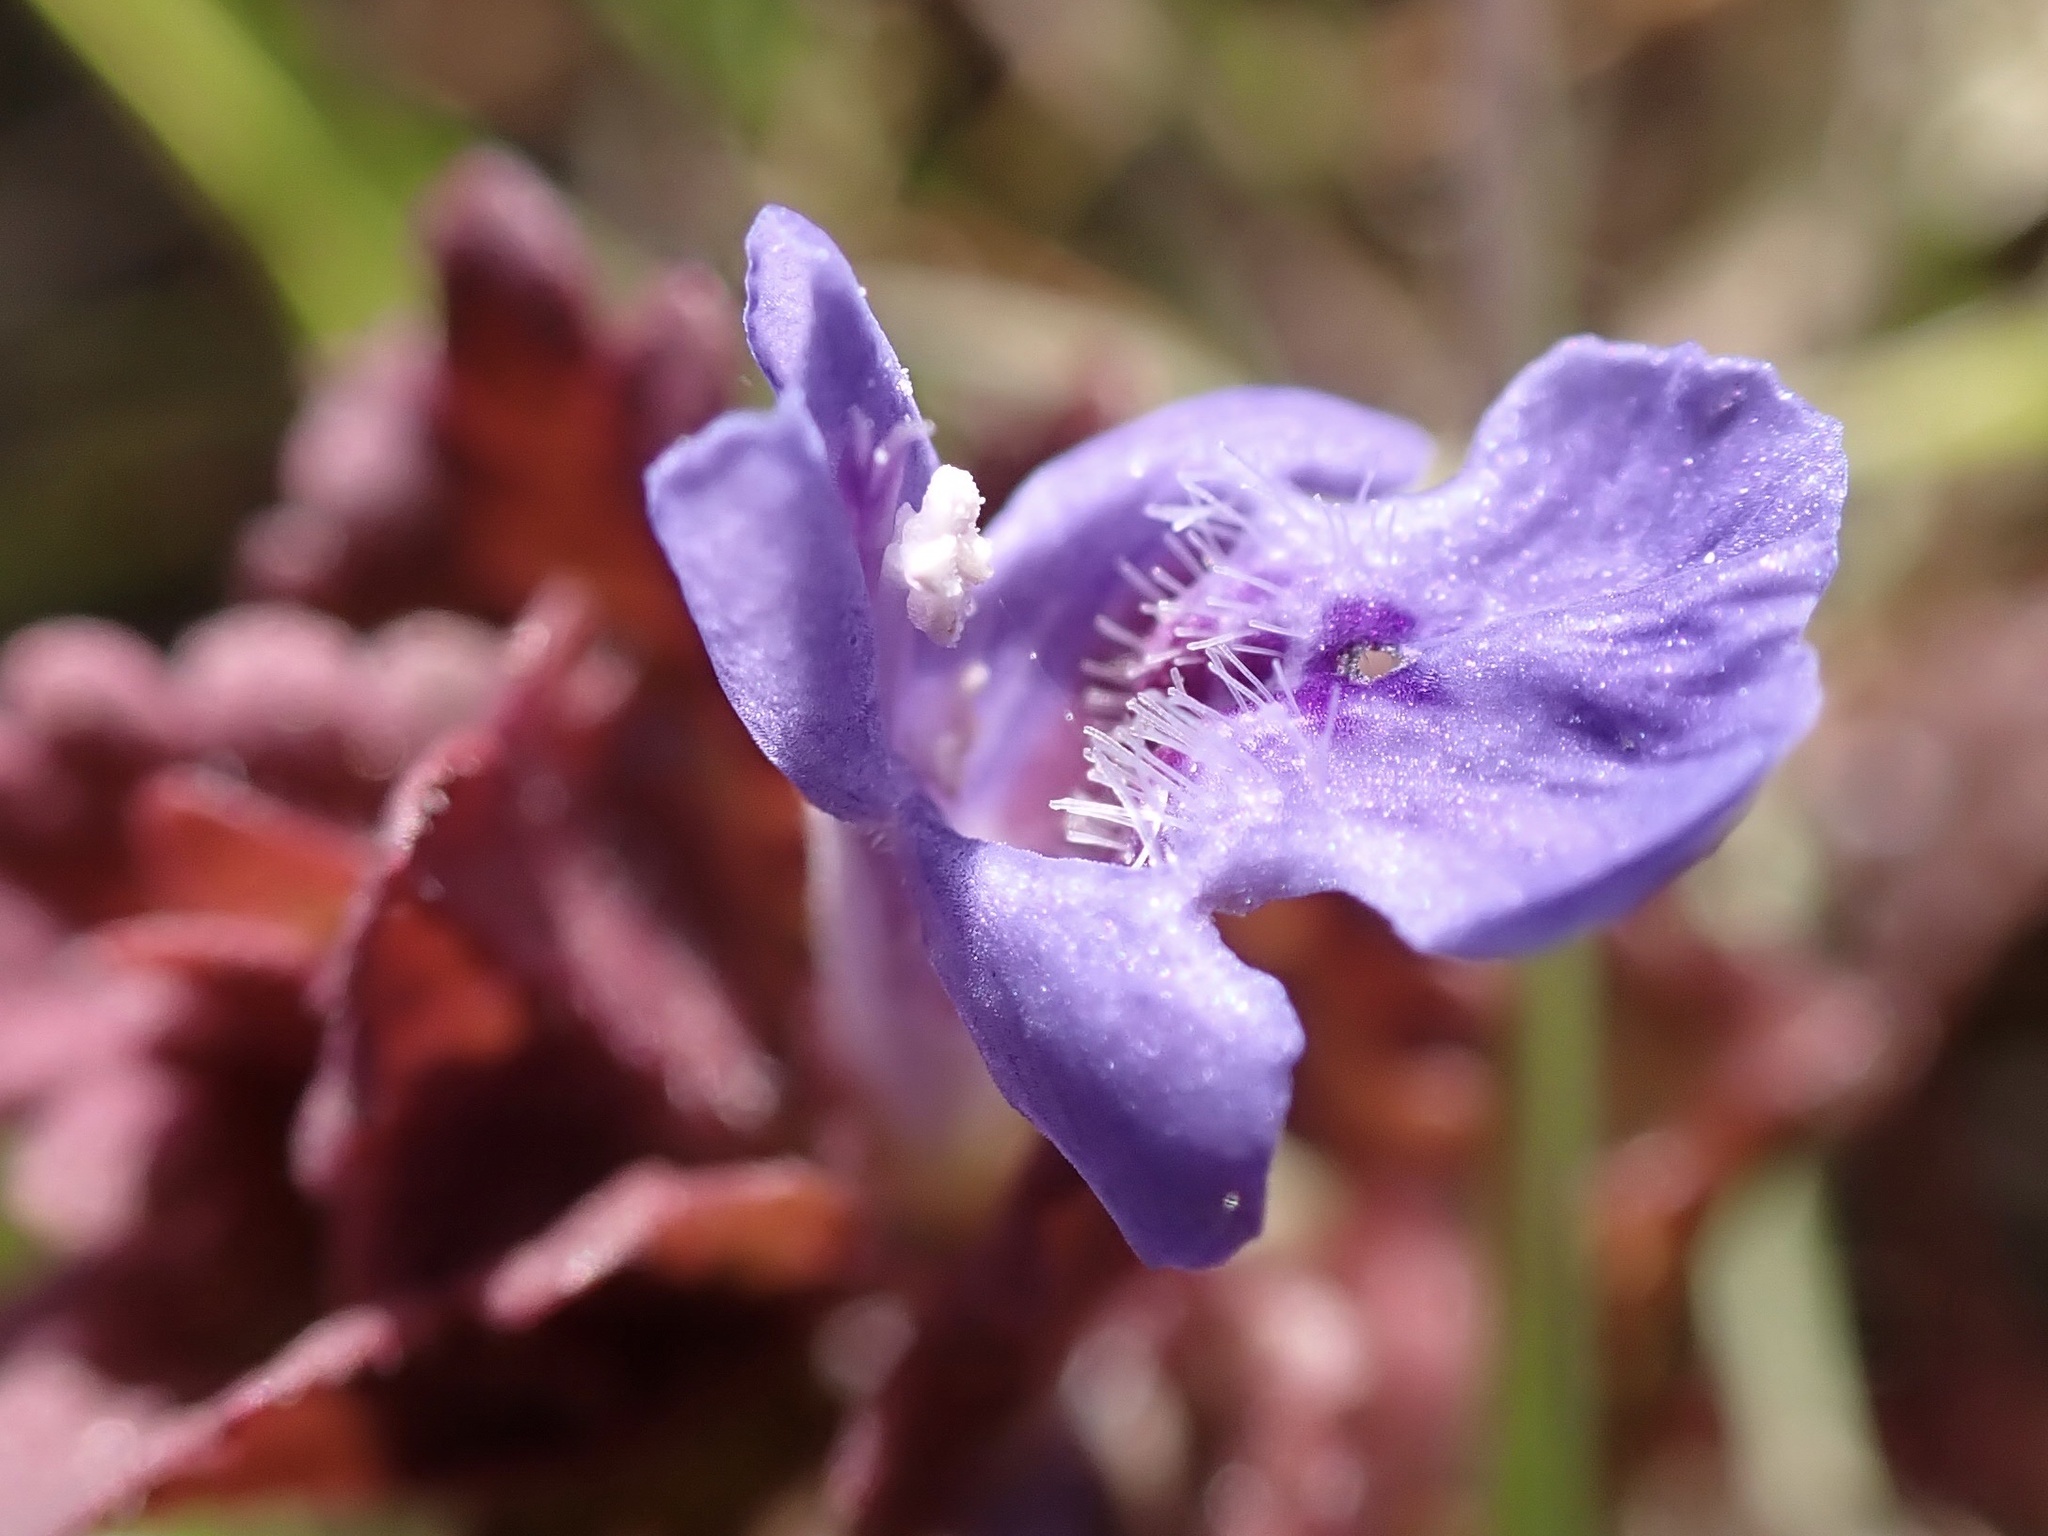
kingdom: Plantae
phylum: Tracheophyta
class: Magnoliopsida
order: Lamiales
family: Lamiaceae
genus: Glechoma
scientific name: Glechoma hederacea
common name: Ground ivy
